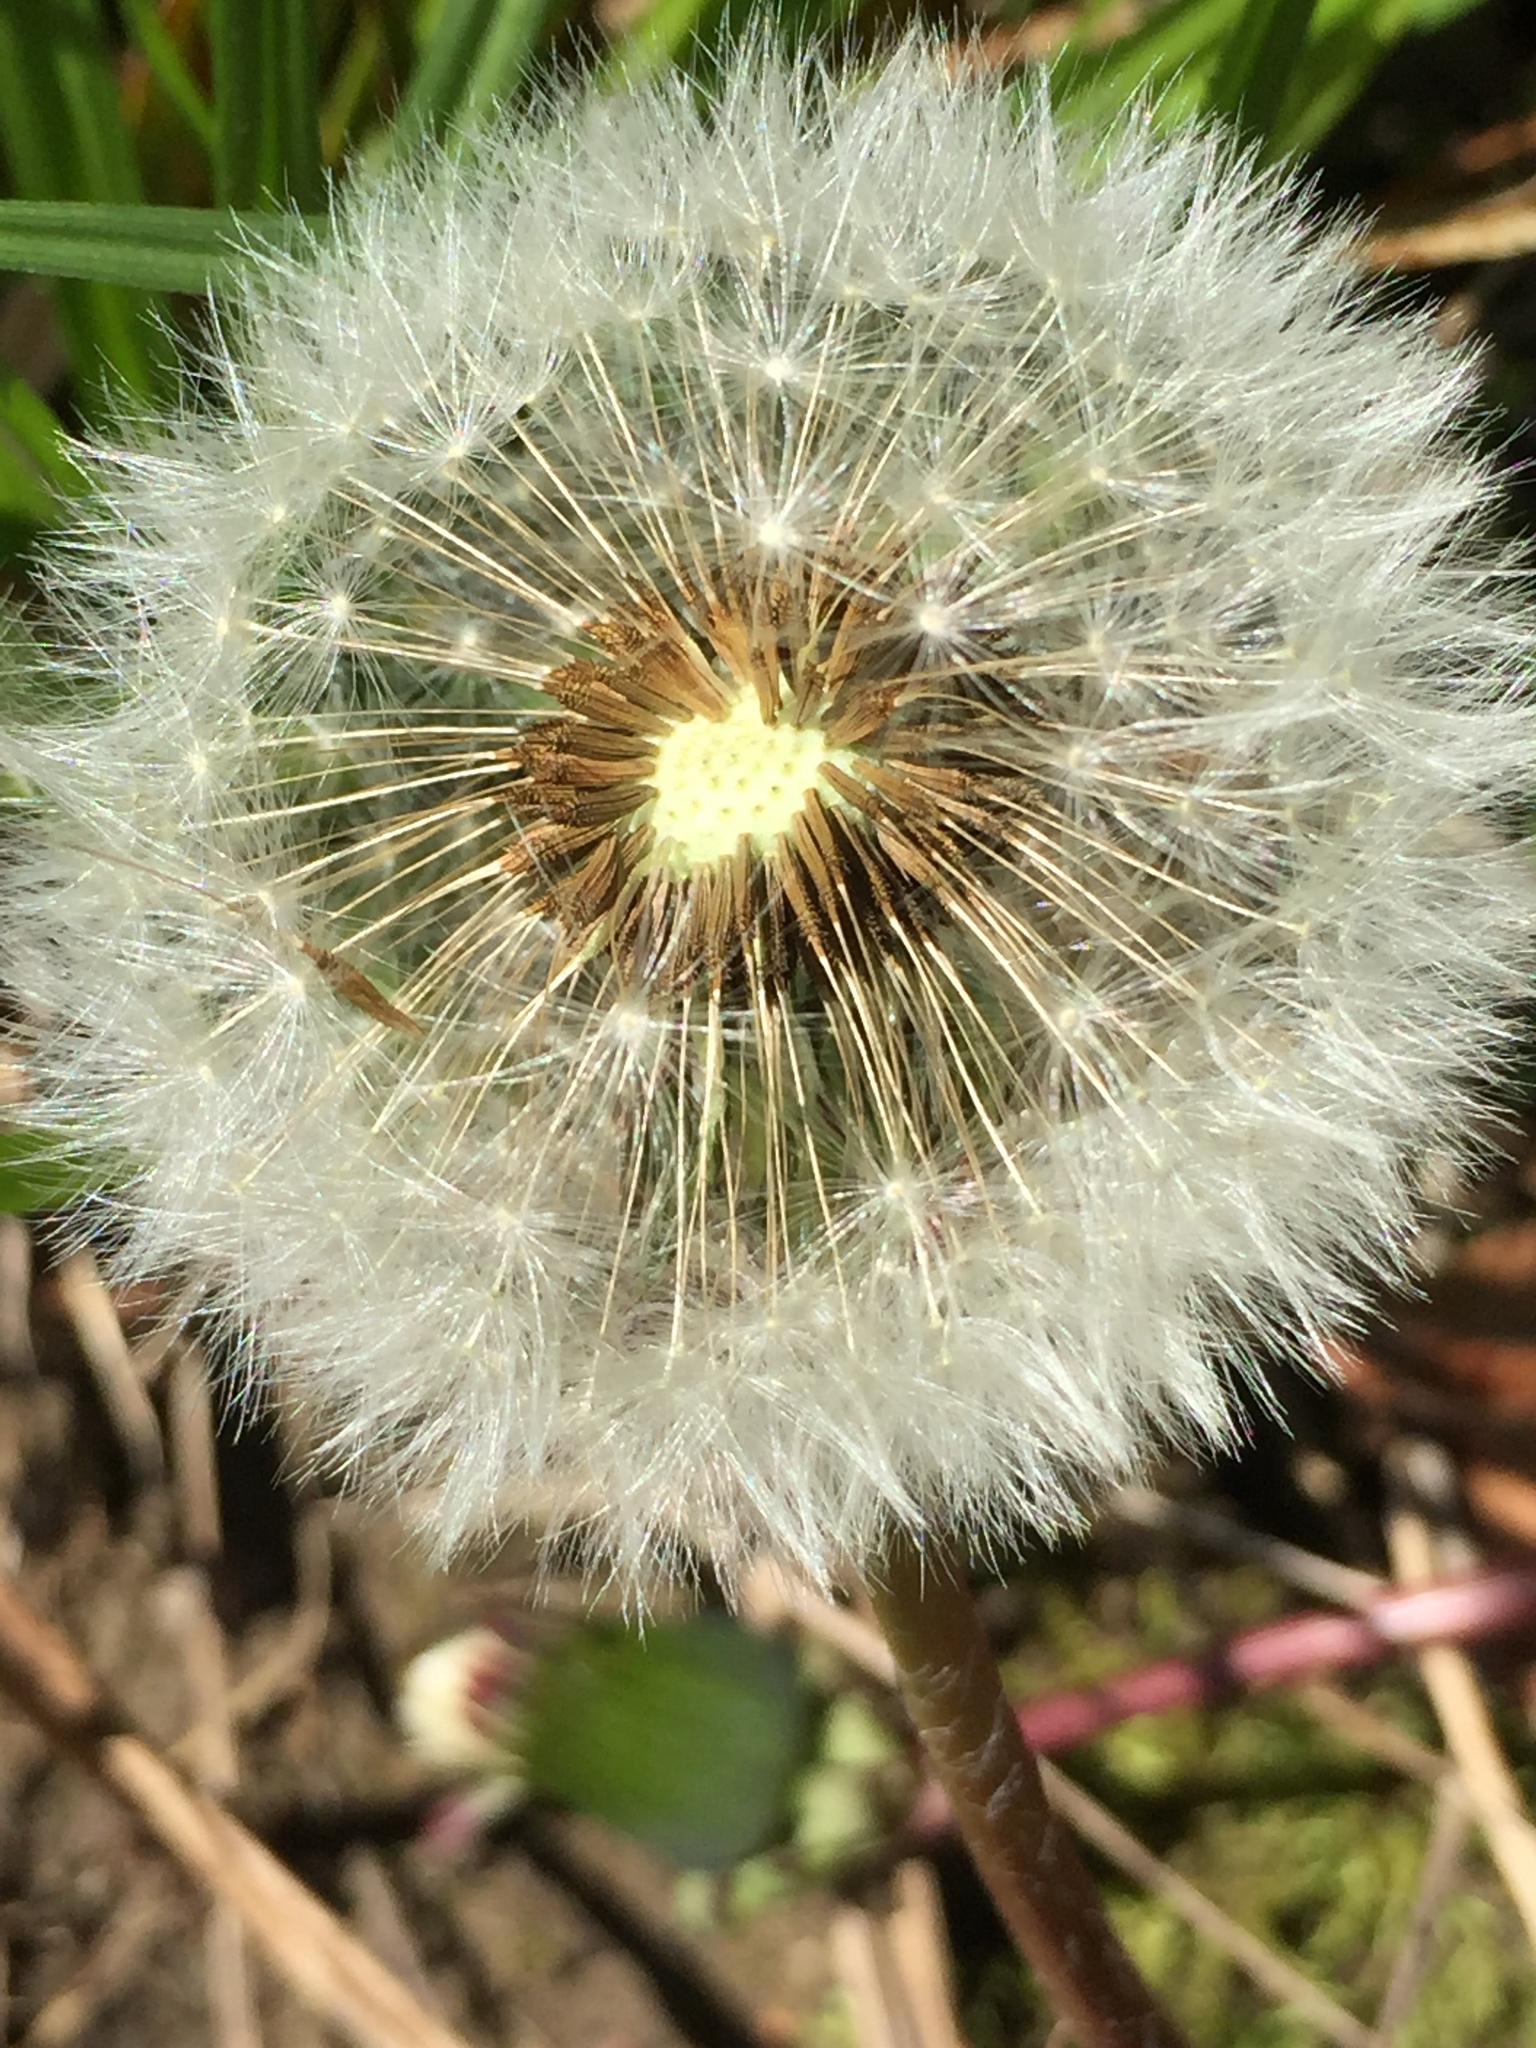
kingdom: Plantae
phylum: Tracheophyta
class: Magnoliopsida
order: Asterales
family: Asteraceae
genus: Taraxacum
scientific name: Taraxacum officinale
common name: Common dandelion
